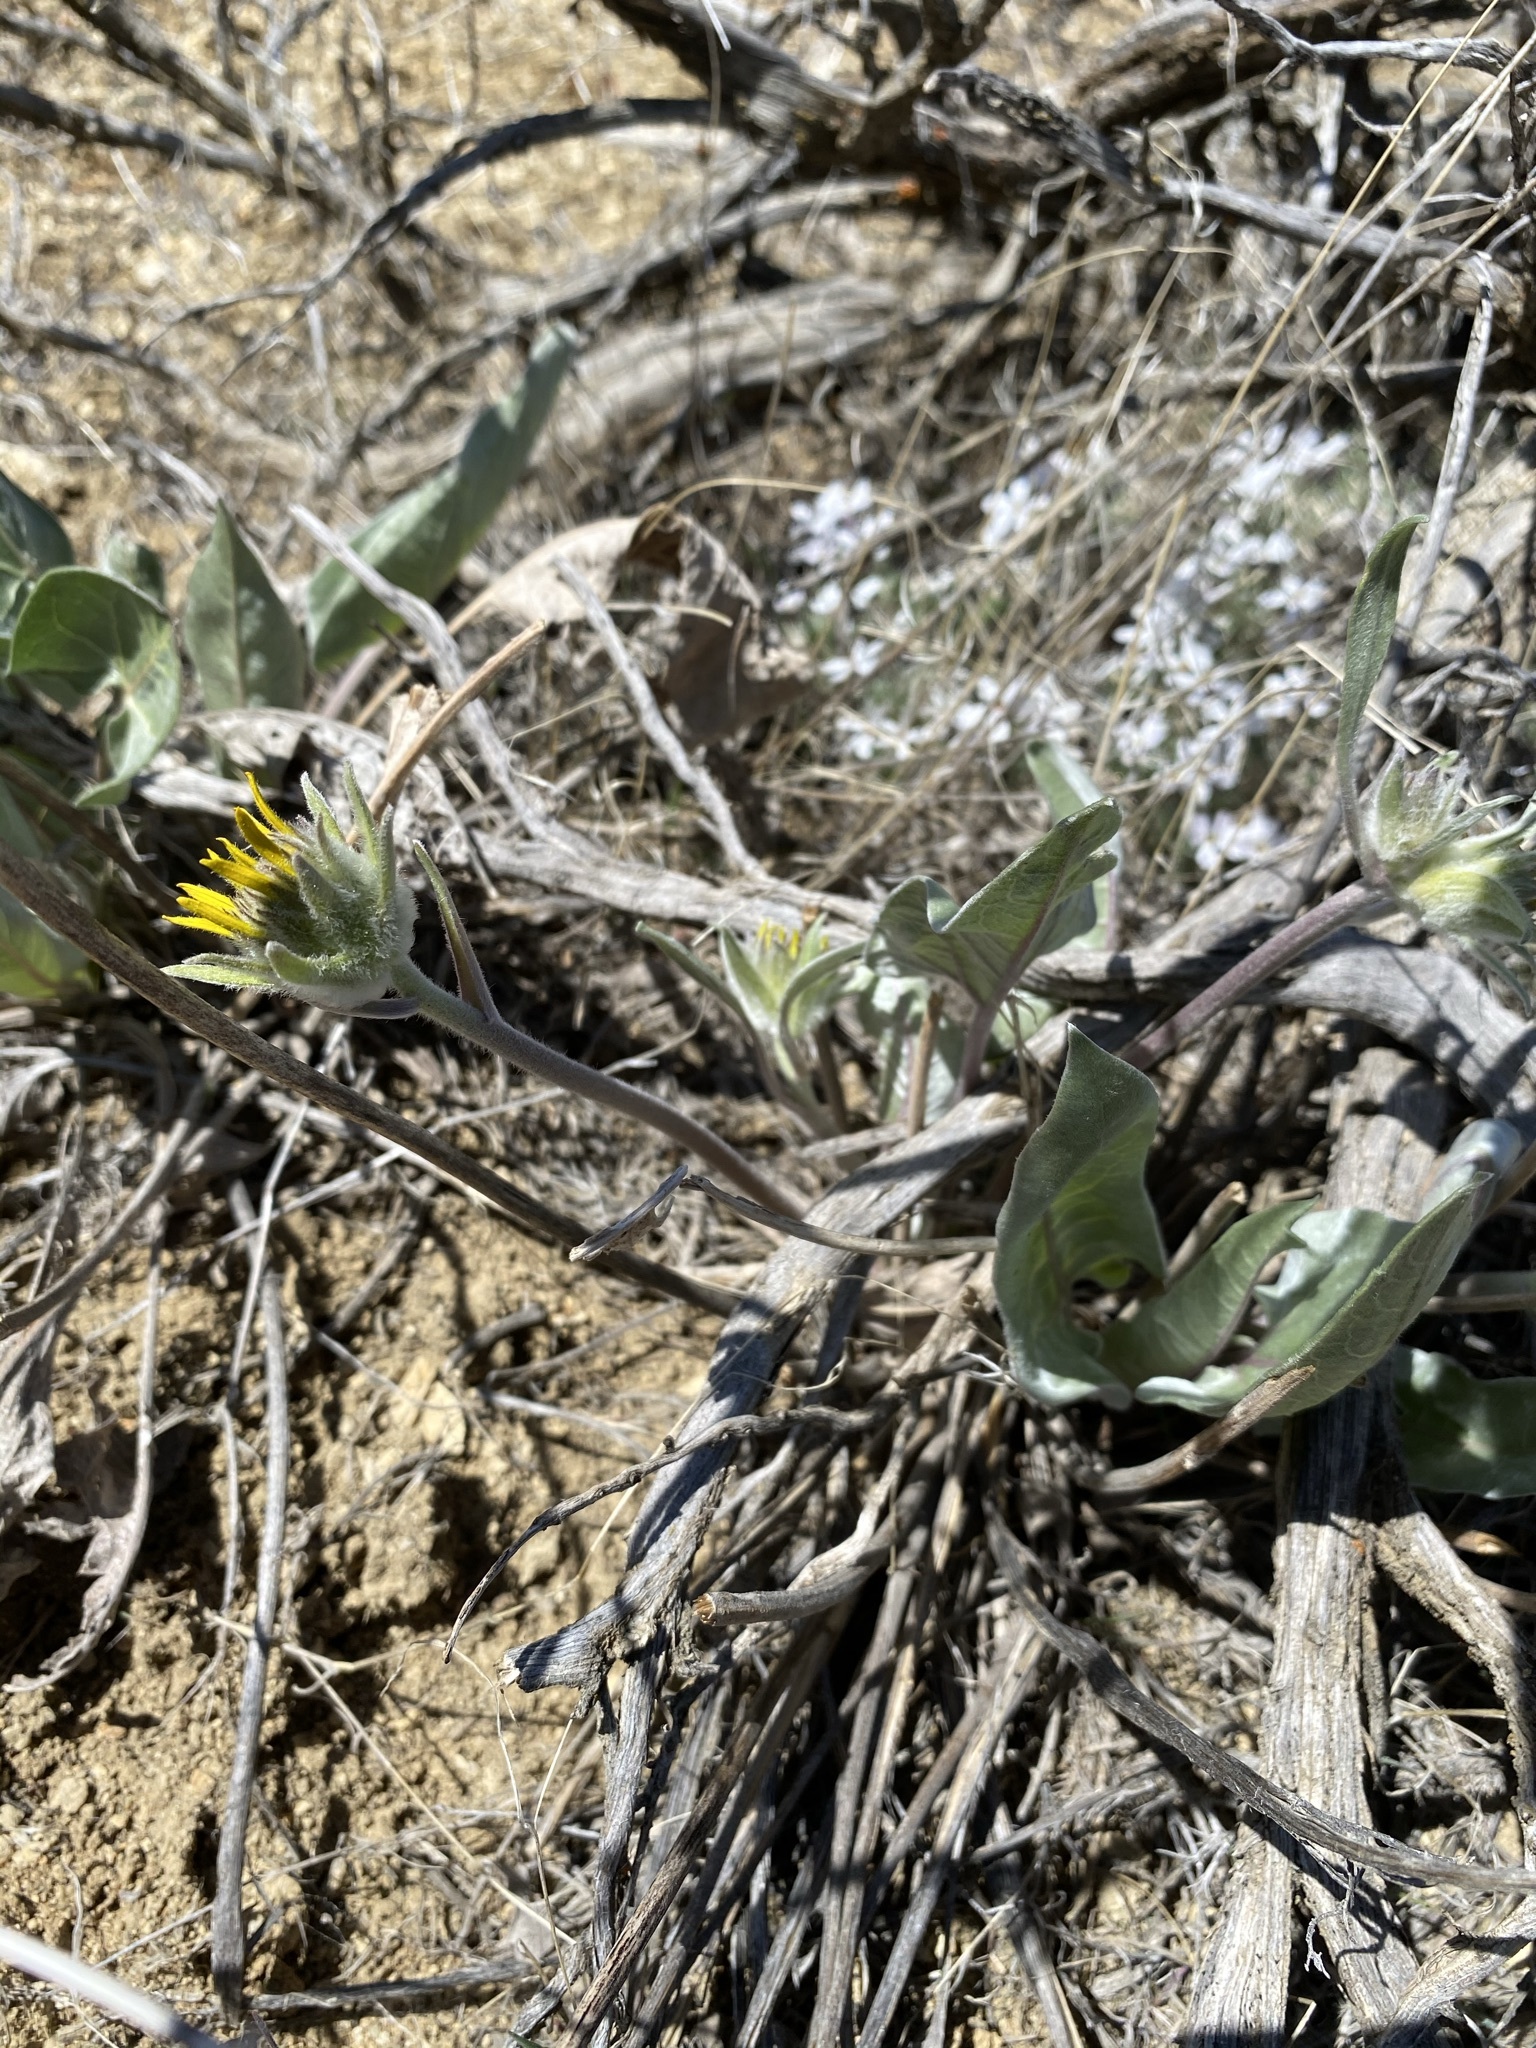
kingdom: Plantae
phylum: Tracheophyta
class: Magnoliopsida
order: Asterales
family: Asteraceae
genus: Wyethia
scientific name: Wyethia sagittata
